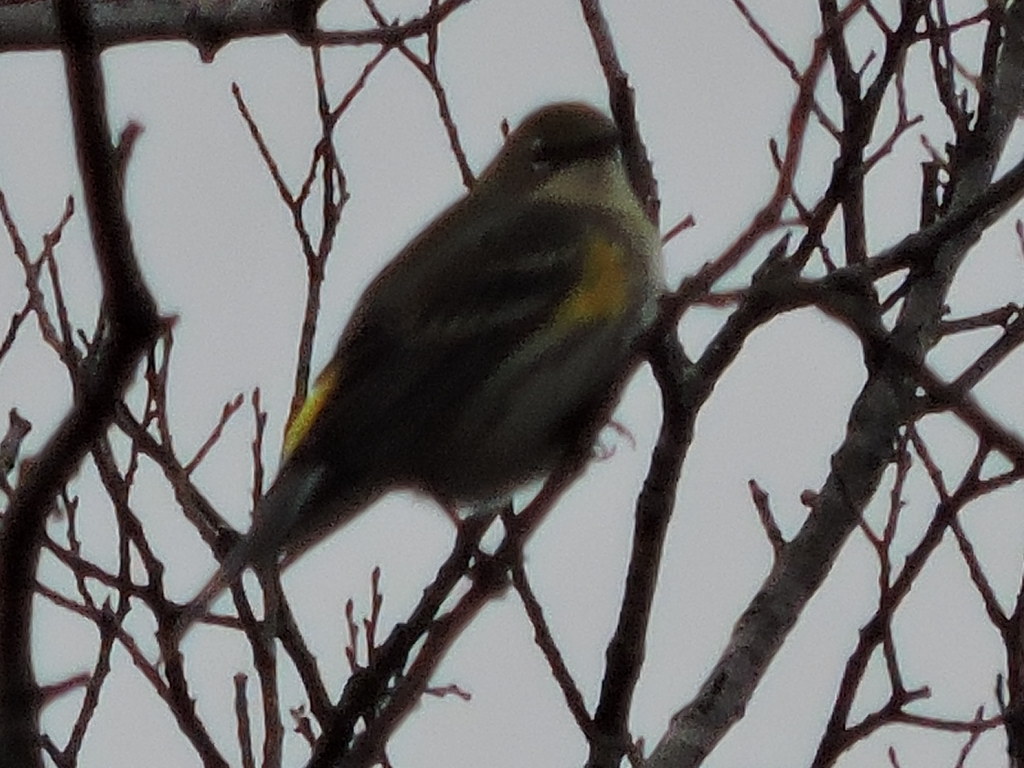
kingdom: Animalia
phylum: Chordata
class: Aves
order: Passeriformes
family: Parulidae
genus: Setophaga
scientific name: Setophaga coronata
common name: Myrtle warbler
